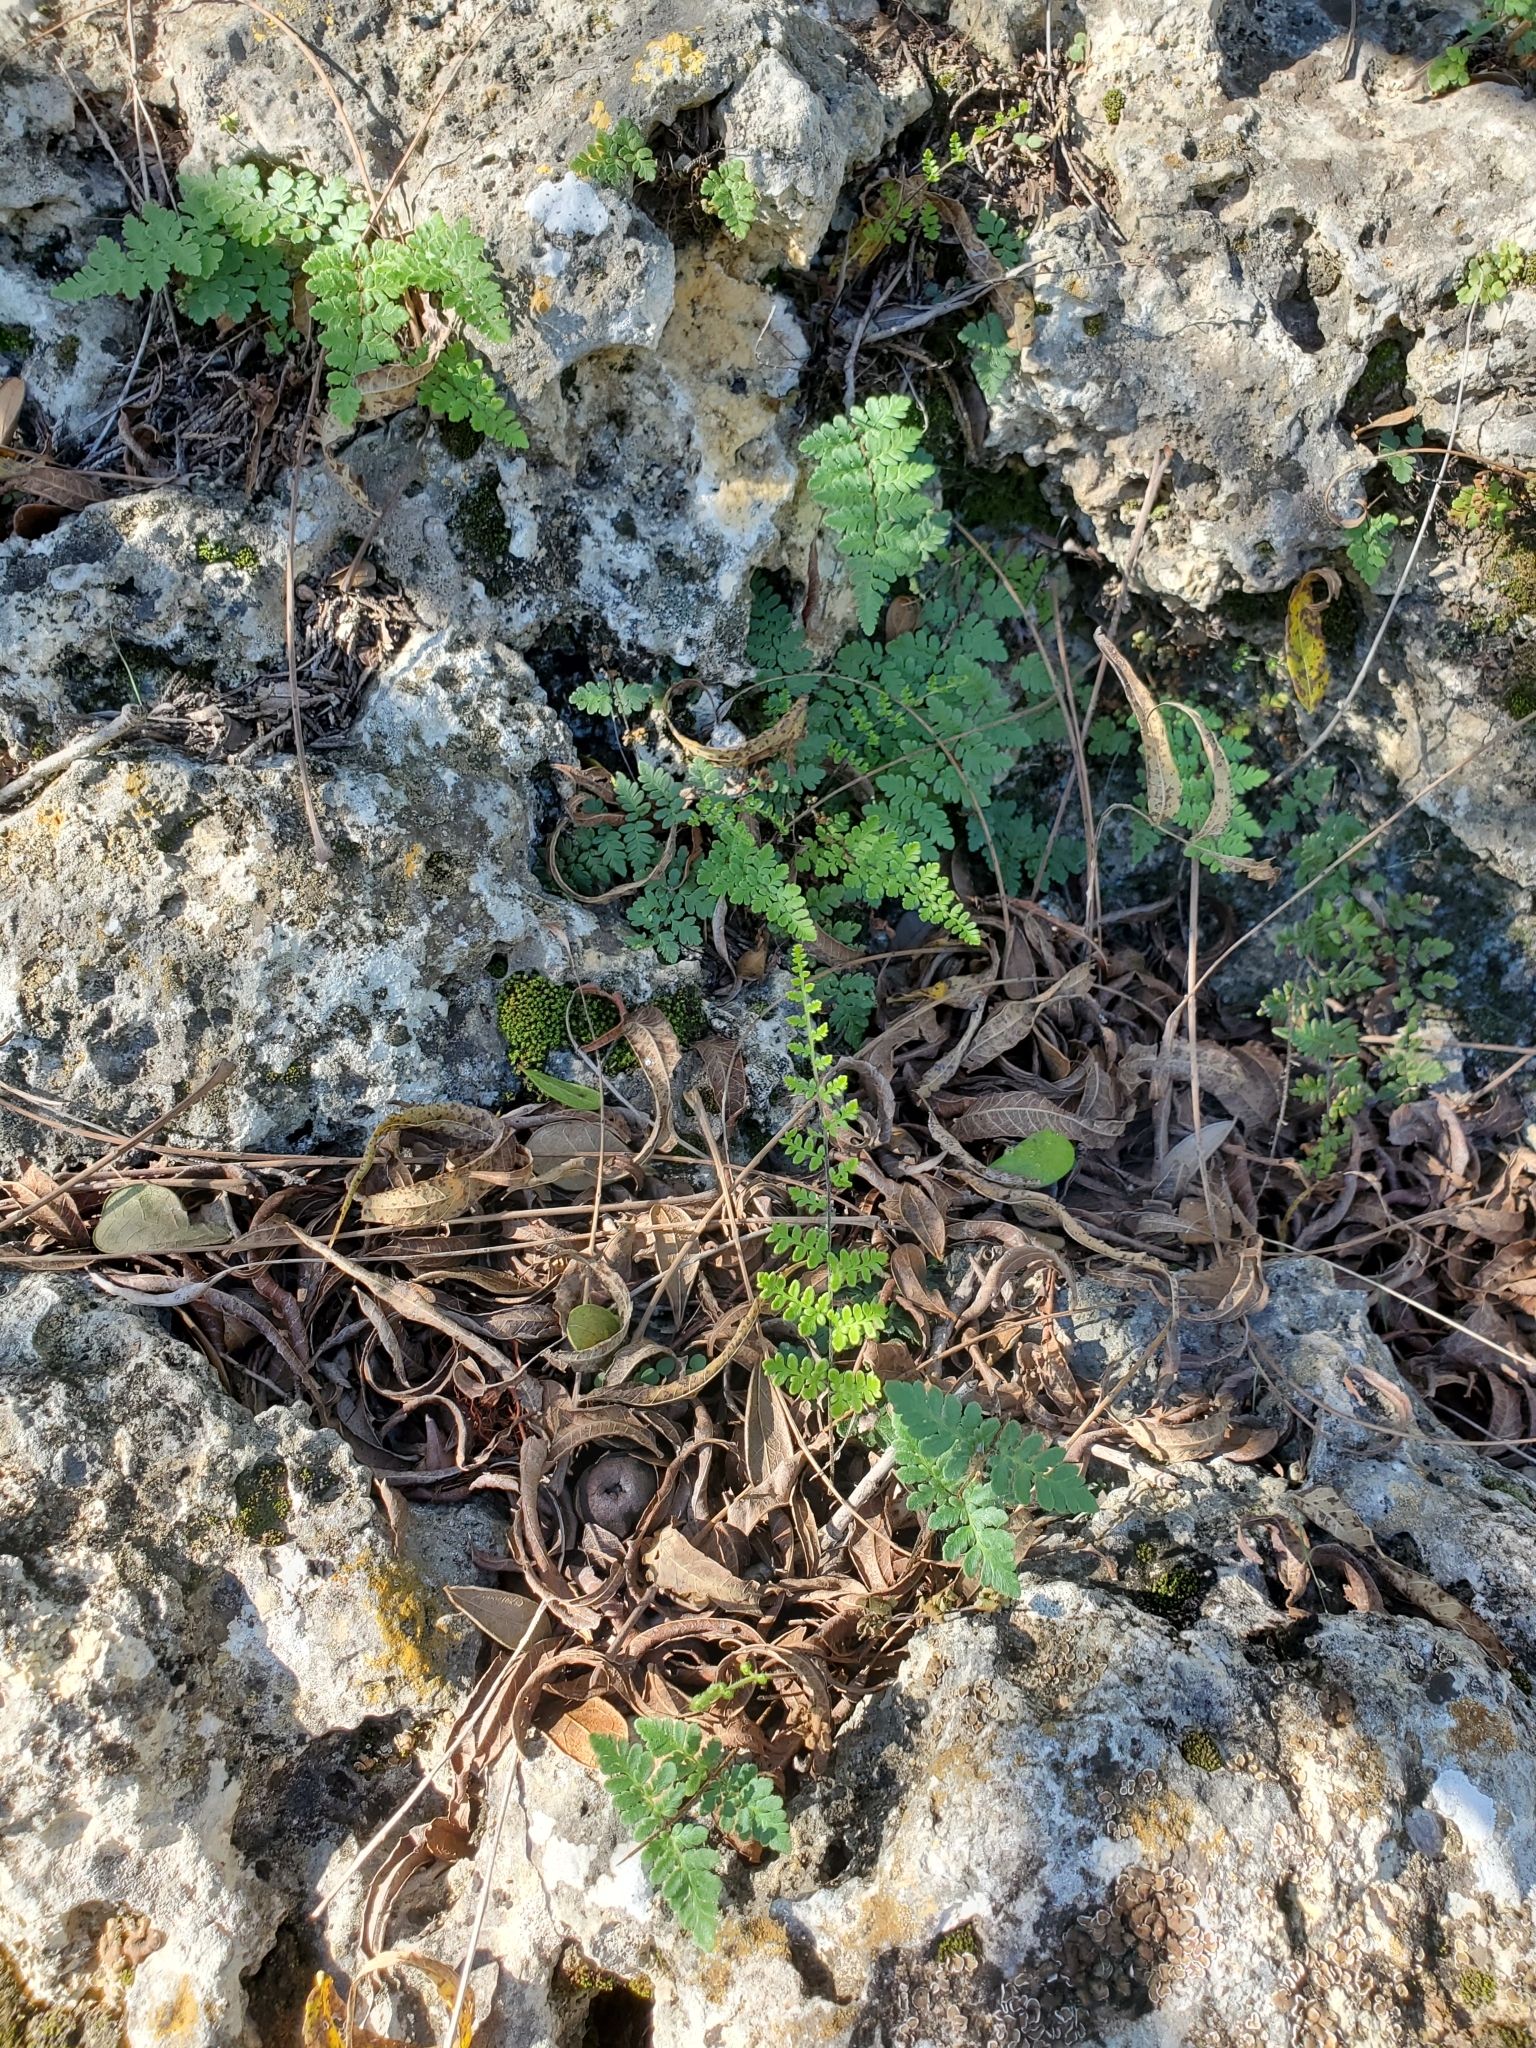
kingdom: Plantae
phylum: Tracheophyta
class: Polypodiopsida
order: Polypodiales
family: Pteridaceae
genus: Myriopteris
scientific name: Myriopteris alabamensis
